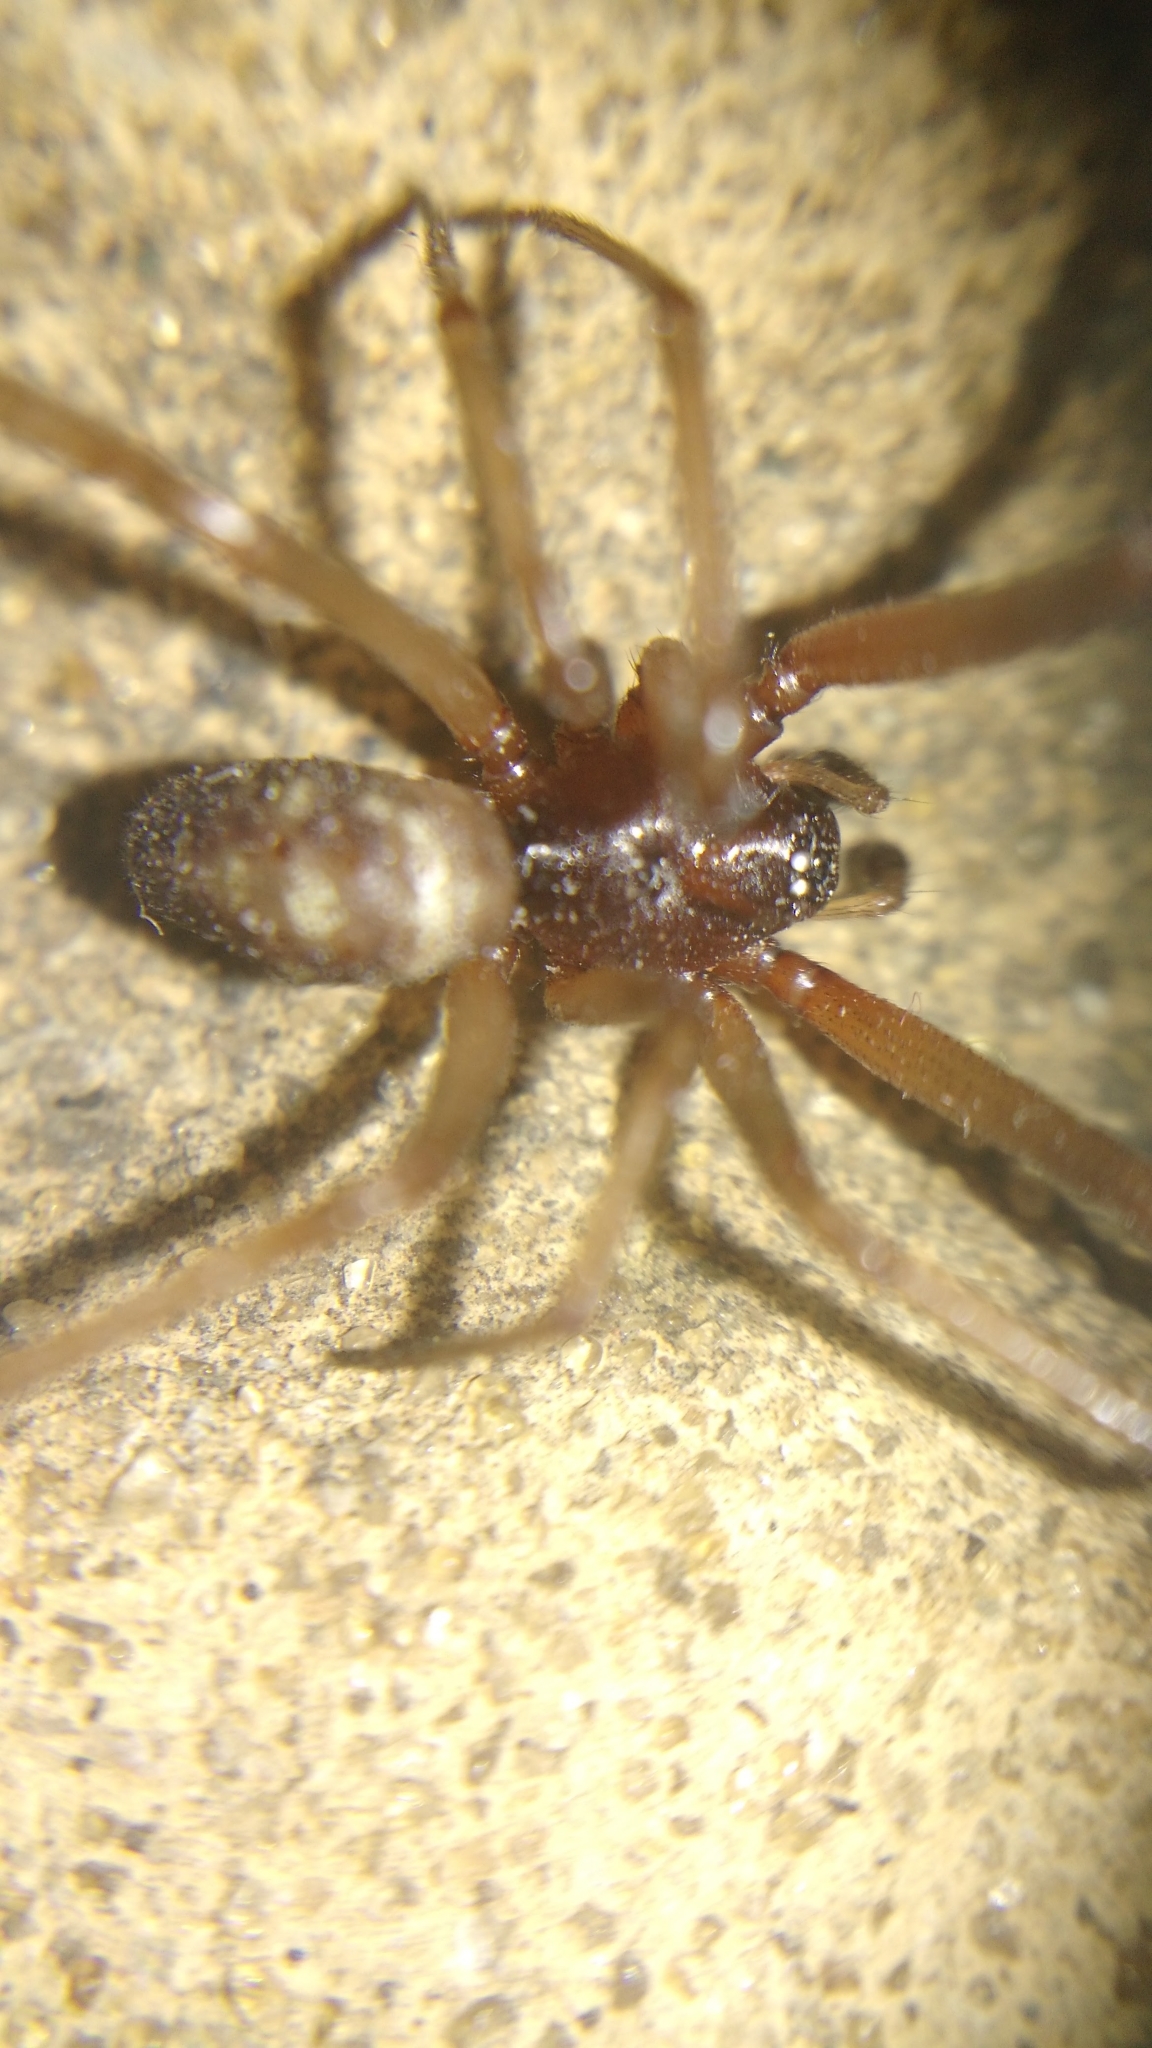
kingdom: Animalia
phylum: Arthropoda
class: Arachnida
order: Araneae
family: Theridiidae
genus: Steatoda
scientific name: Steatoda grossa
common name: False black widow
